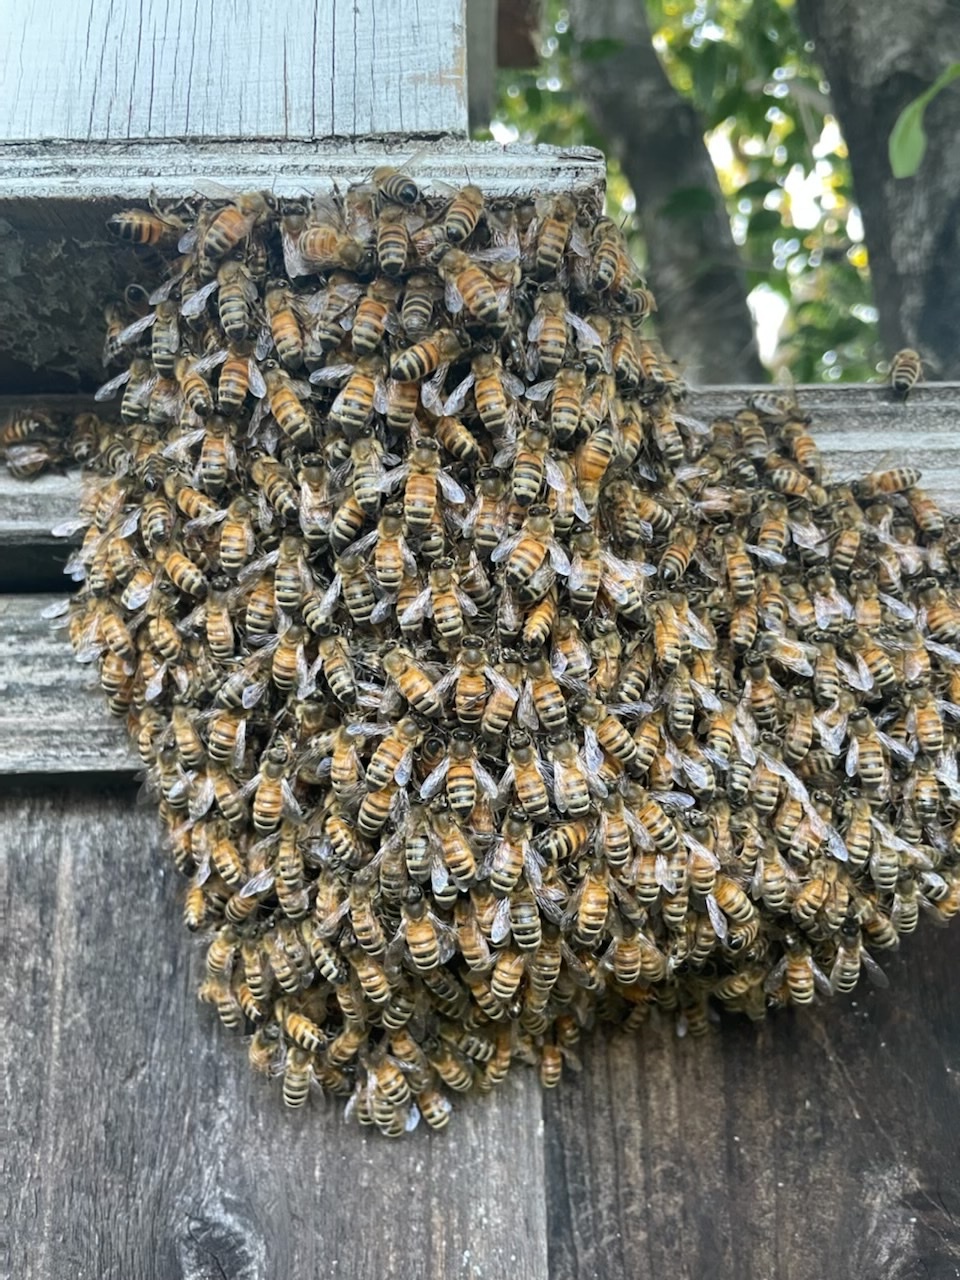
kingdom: Animalia
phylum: Arthropoda
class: Insecta
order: Hymenoptera
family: Apidae
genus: Apis
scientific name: Apis mellifera
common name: Honey bee
